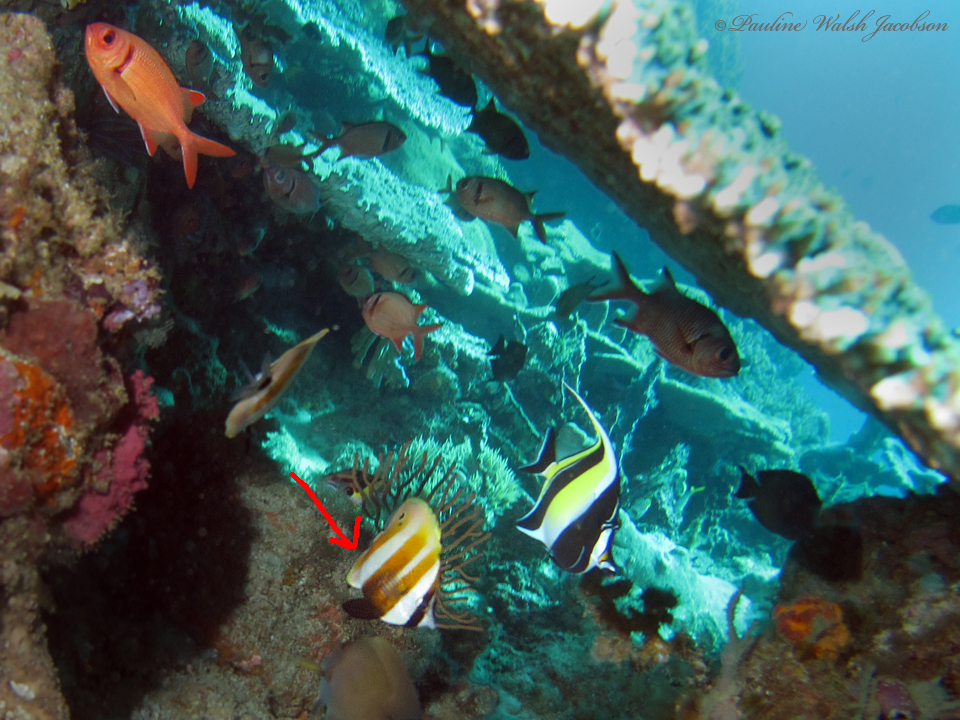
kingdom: Animalia
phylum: Chordata
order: Perciformes
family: Chaetodontidae
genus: Coradion
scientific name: Coradion chrysozonus
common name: Orange-banded coralfish
